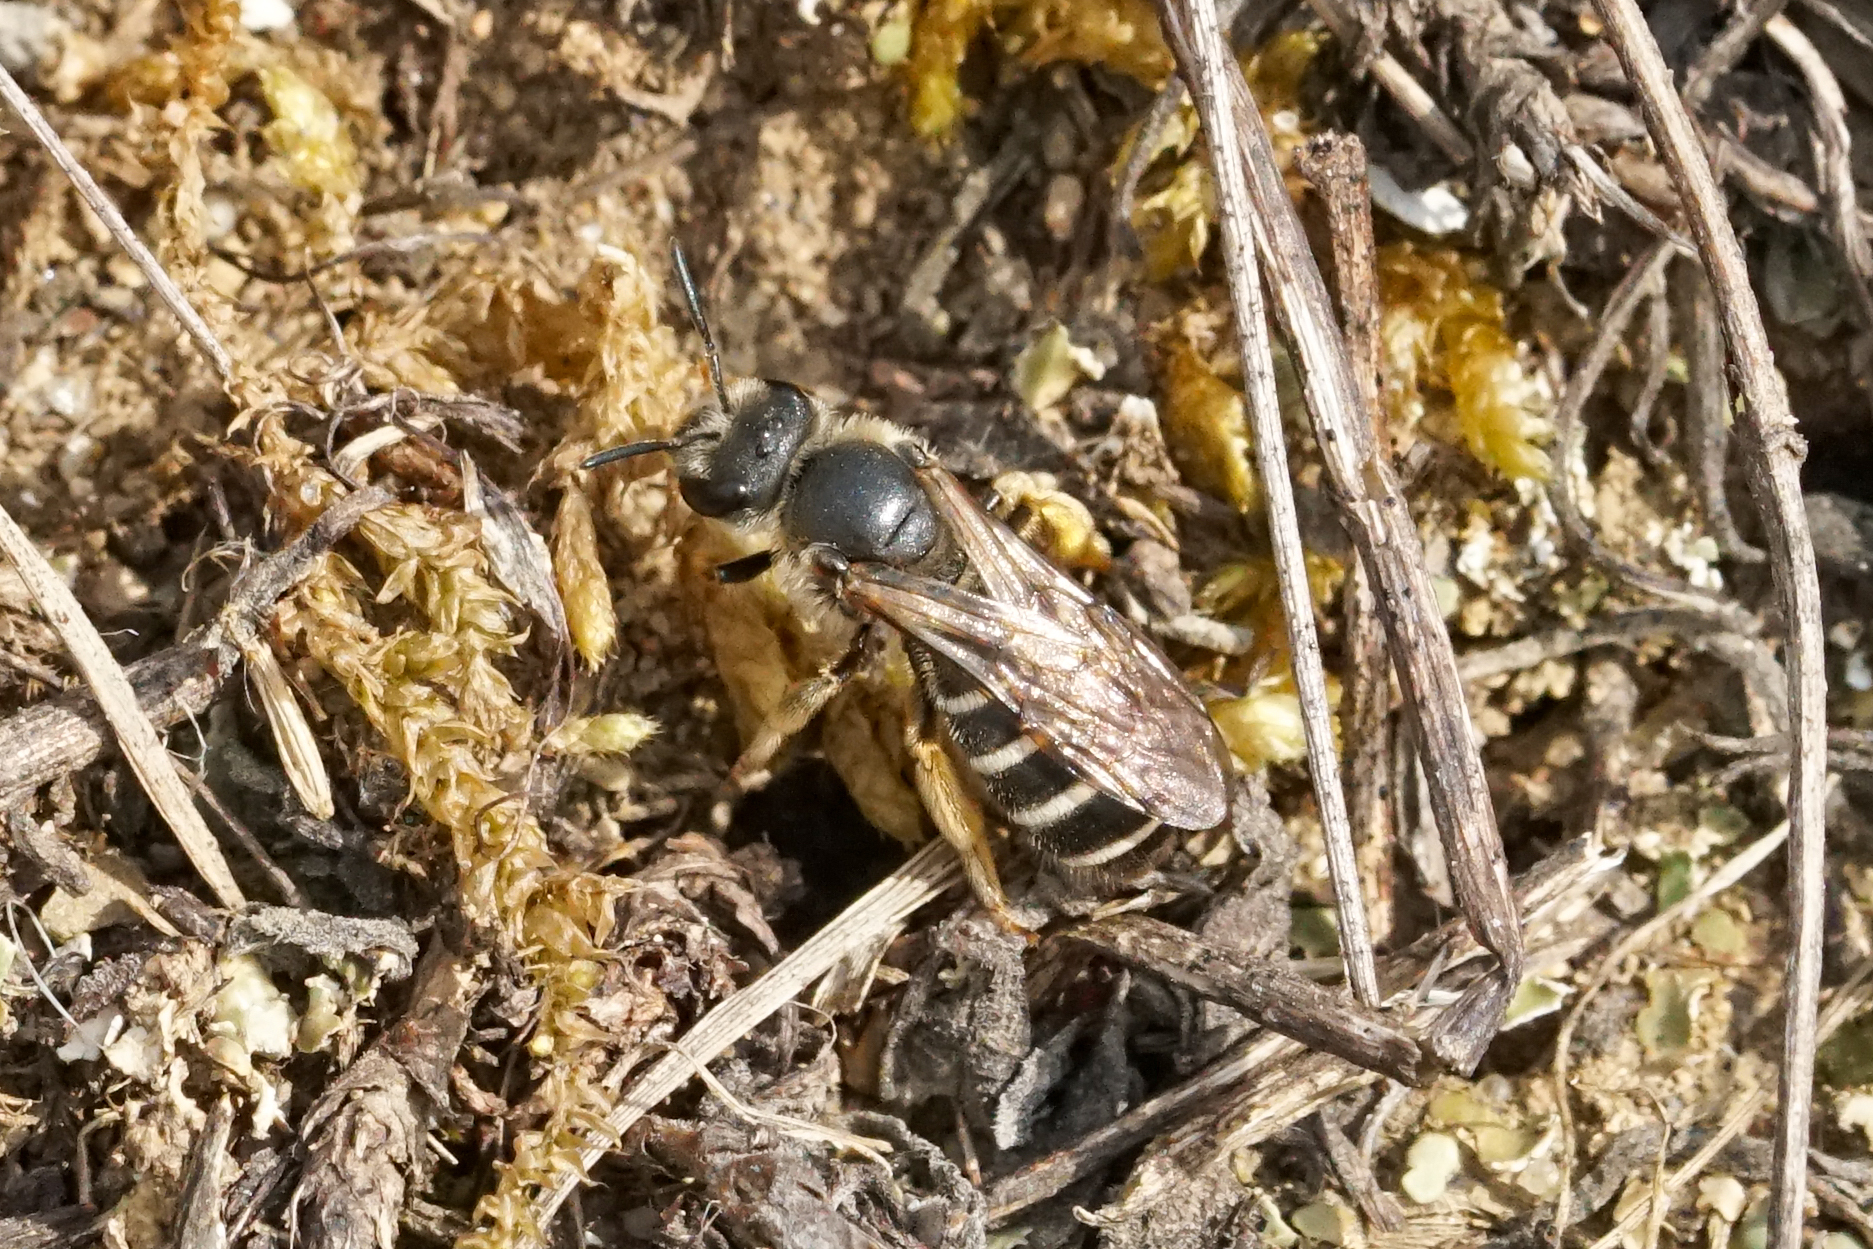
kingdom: Animalia
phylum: Arthropoda
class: Insecta
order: Hymenoptera
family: Halictidae
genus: Halictus
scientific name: Halictus rubicundus
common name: Orange-legged furrow bee
